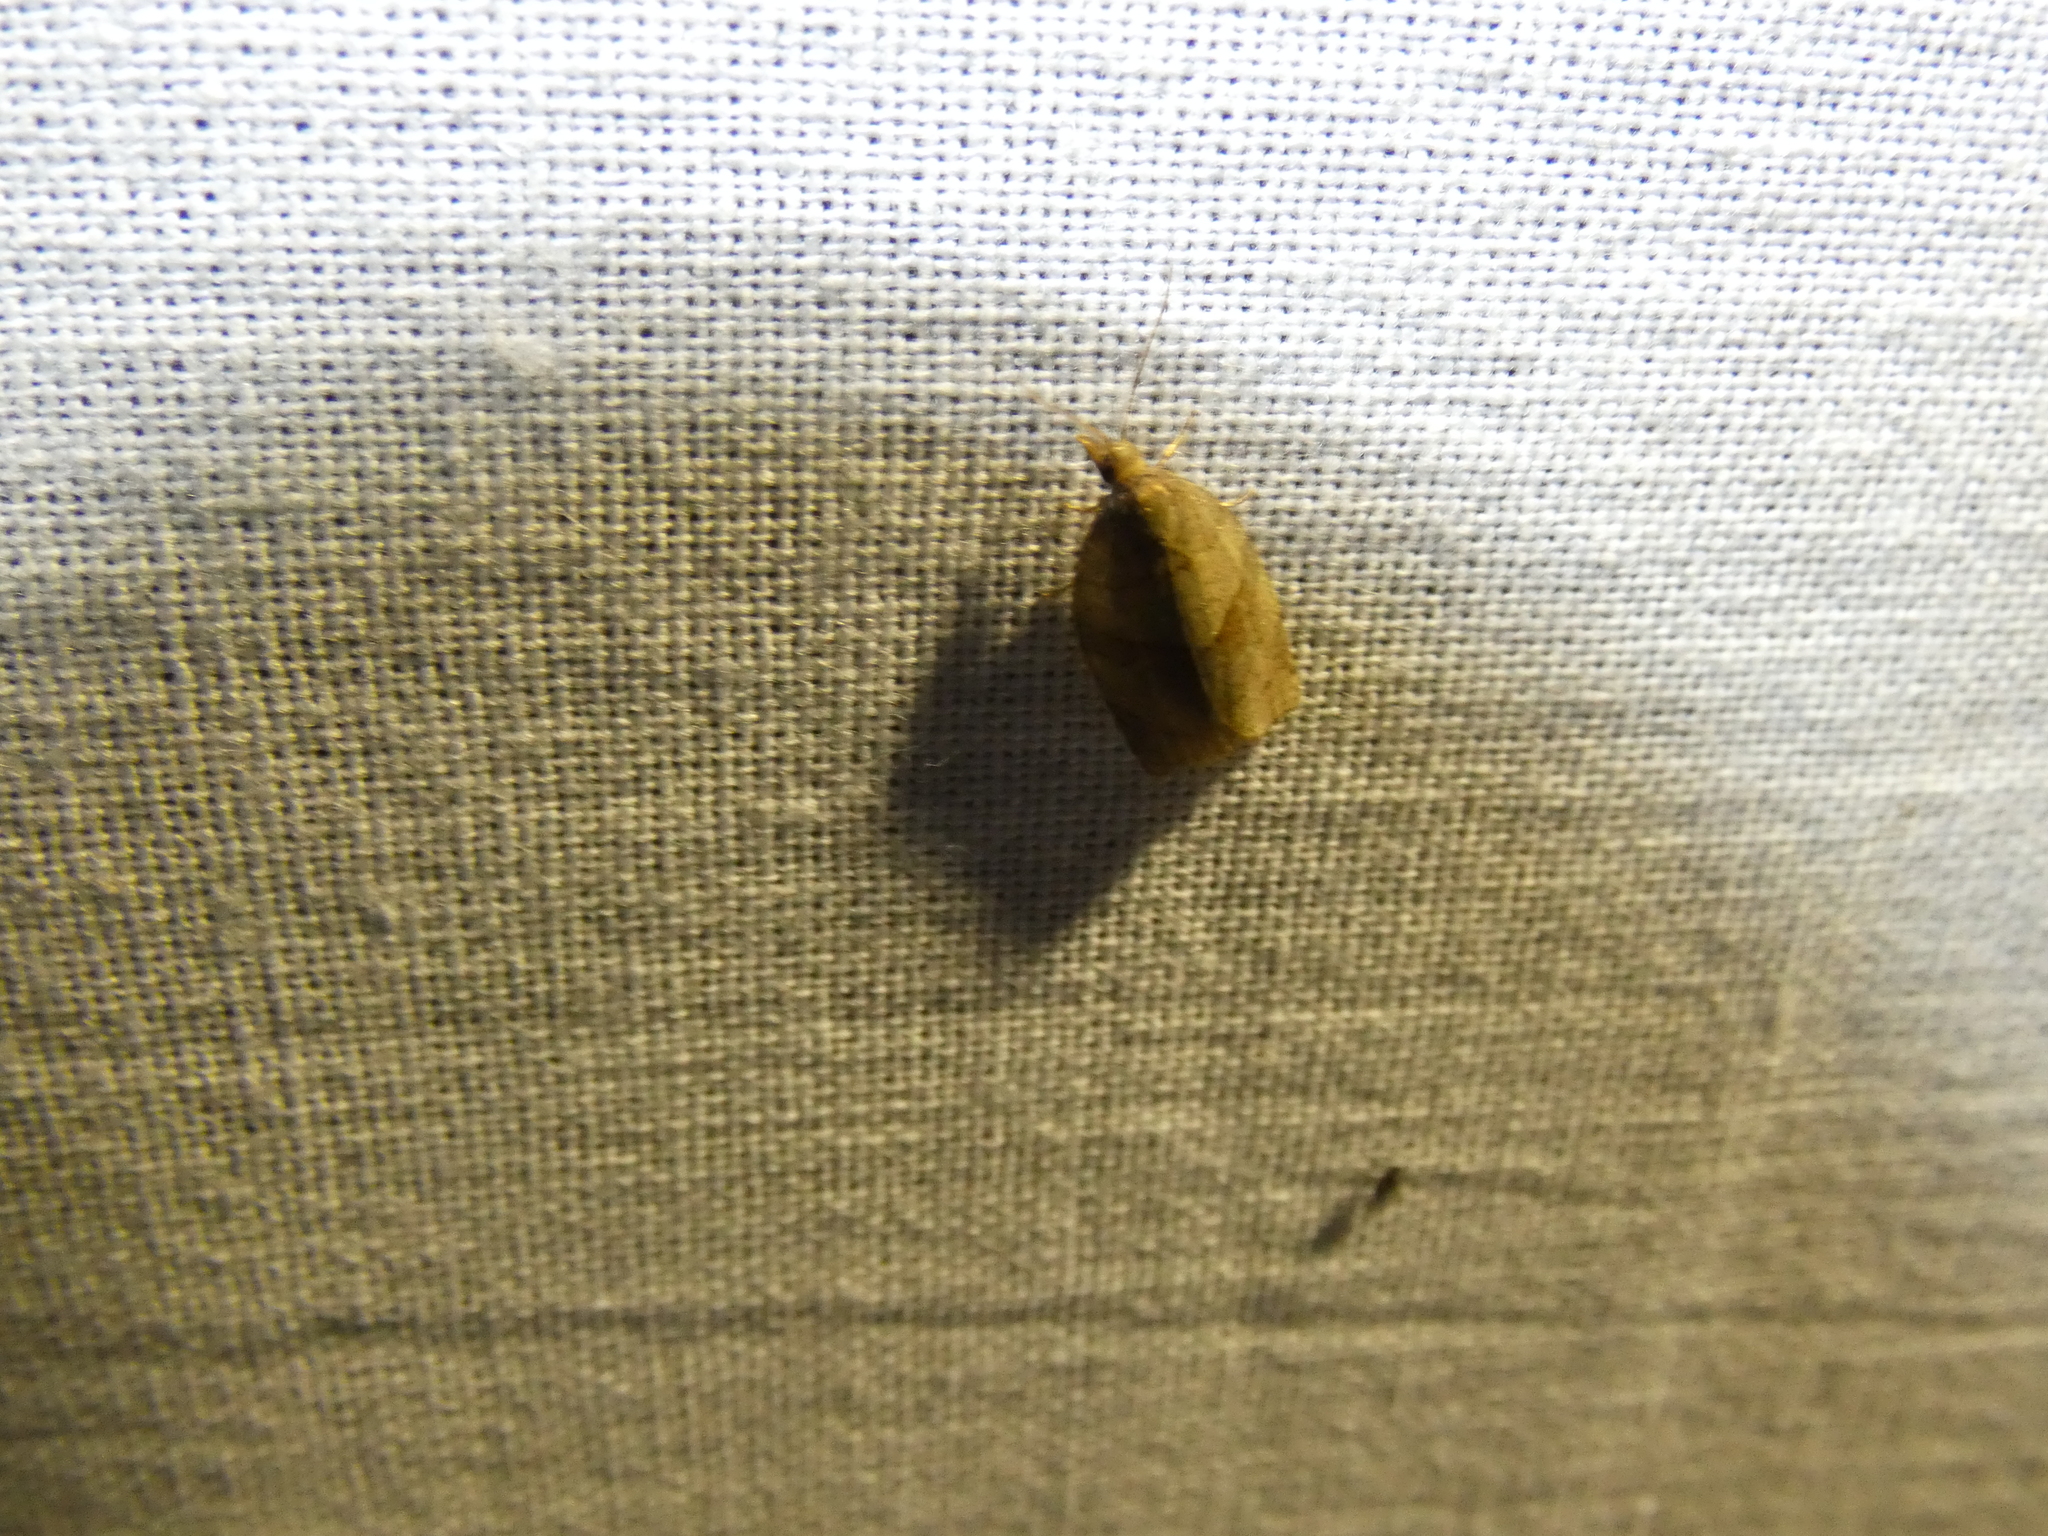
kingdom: Animalia
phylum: Arthropoda
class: Insecta
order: Lepidoptera
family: Tortricidae
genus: Pandemis
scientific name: Pandemis dumetana
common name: Thicket twist
